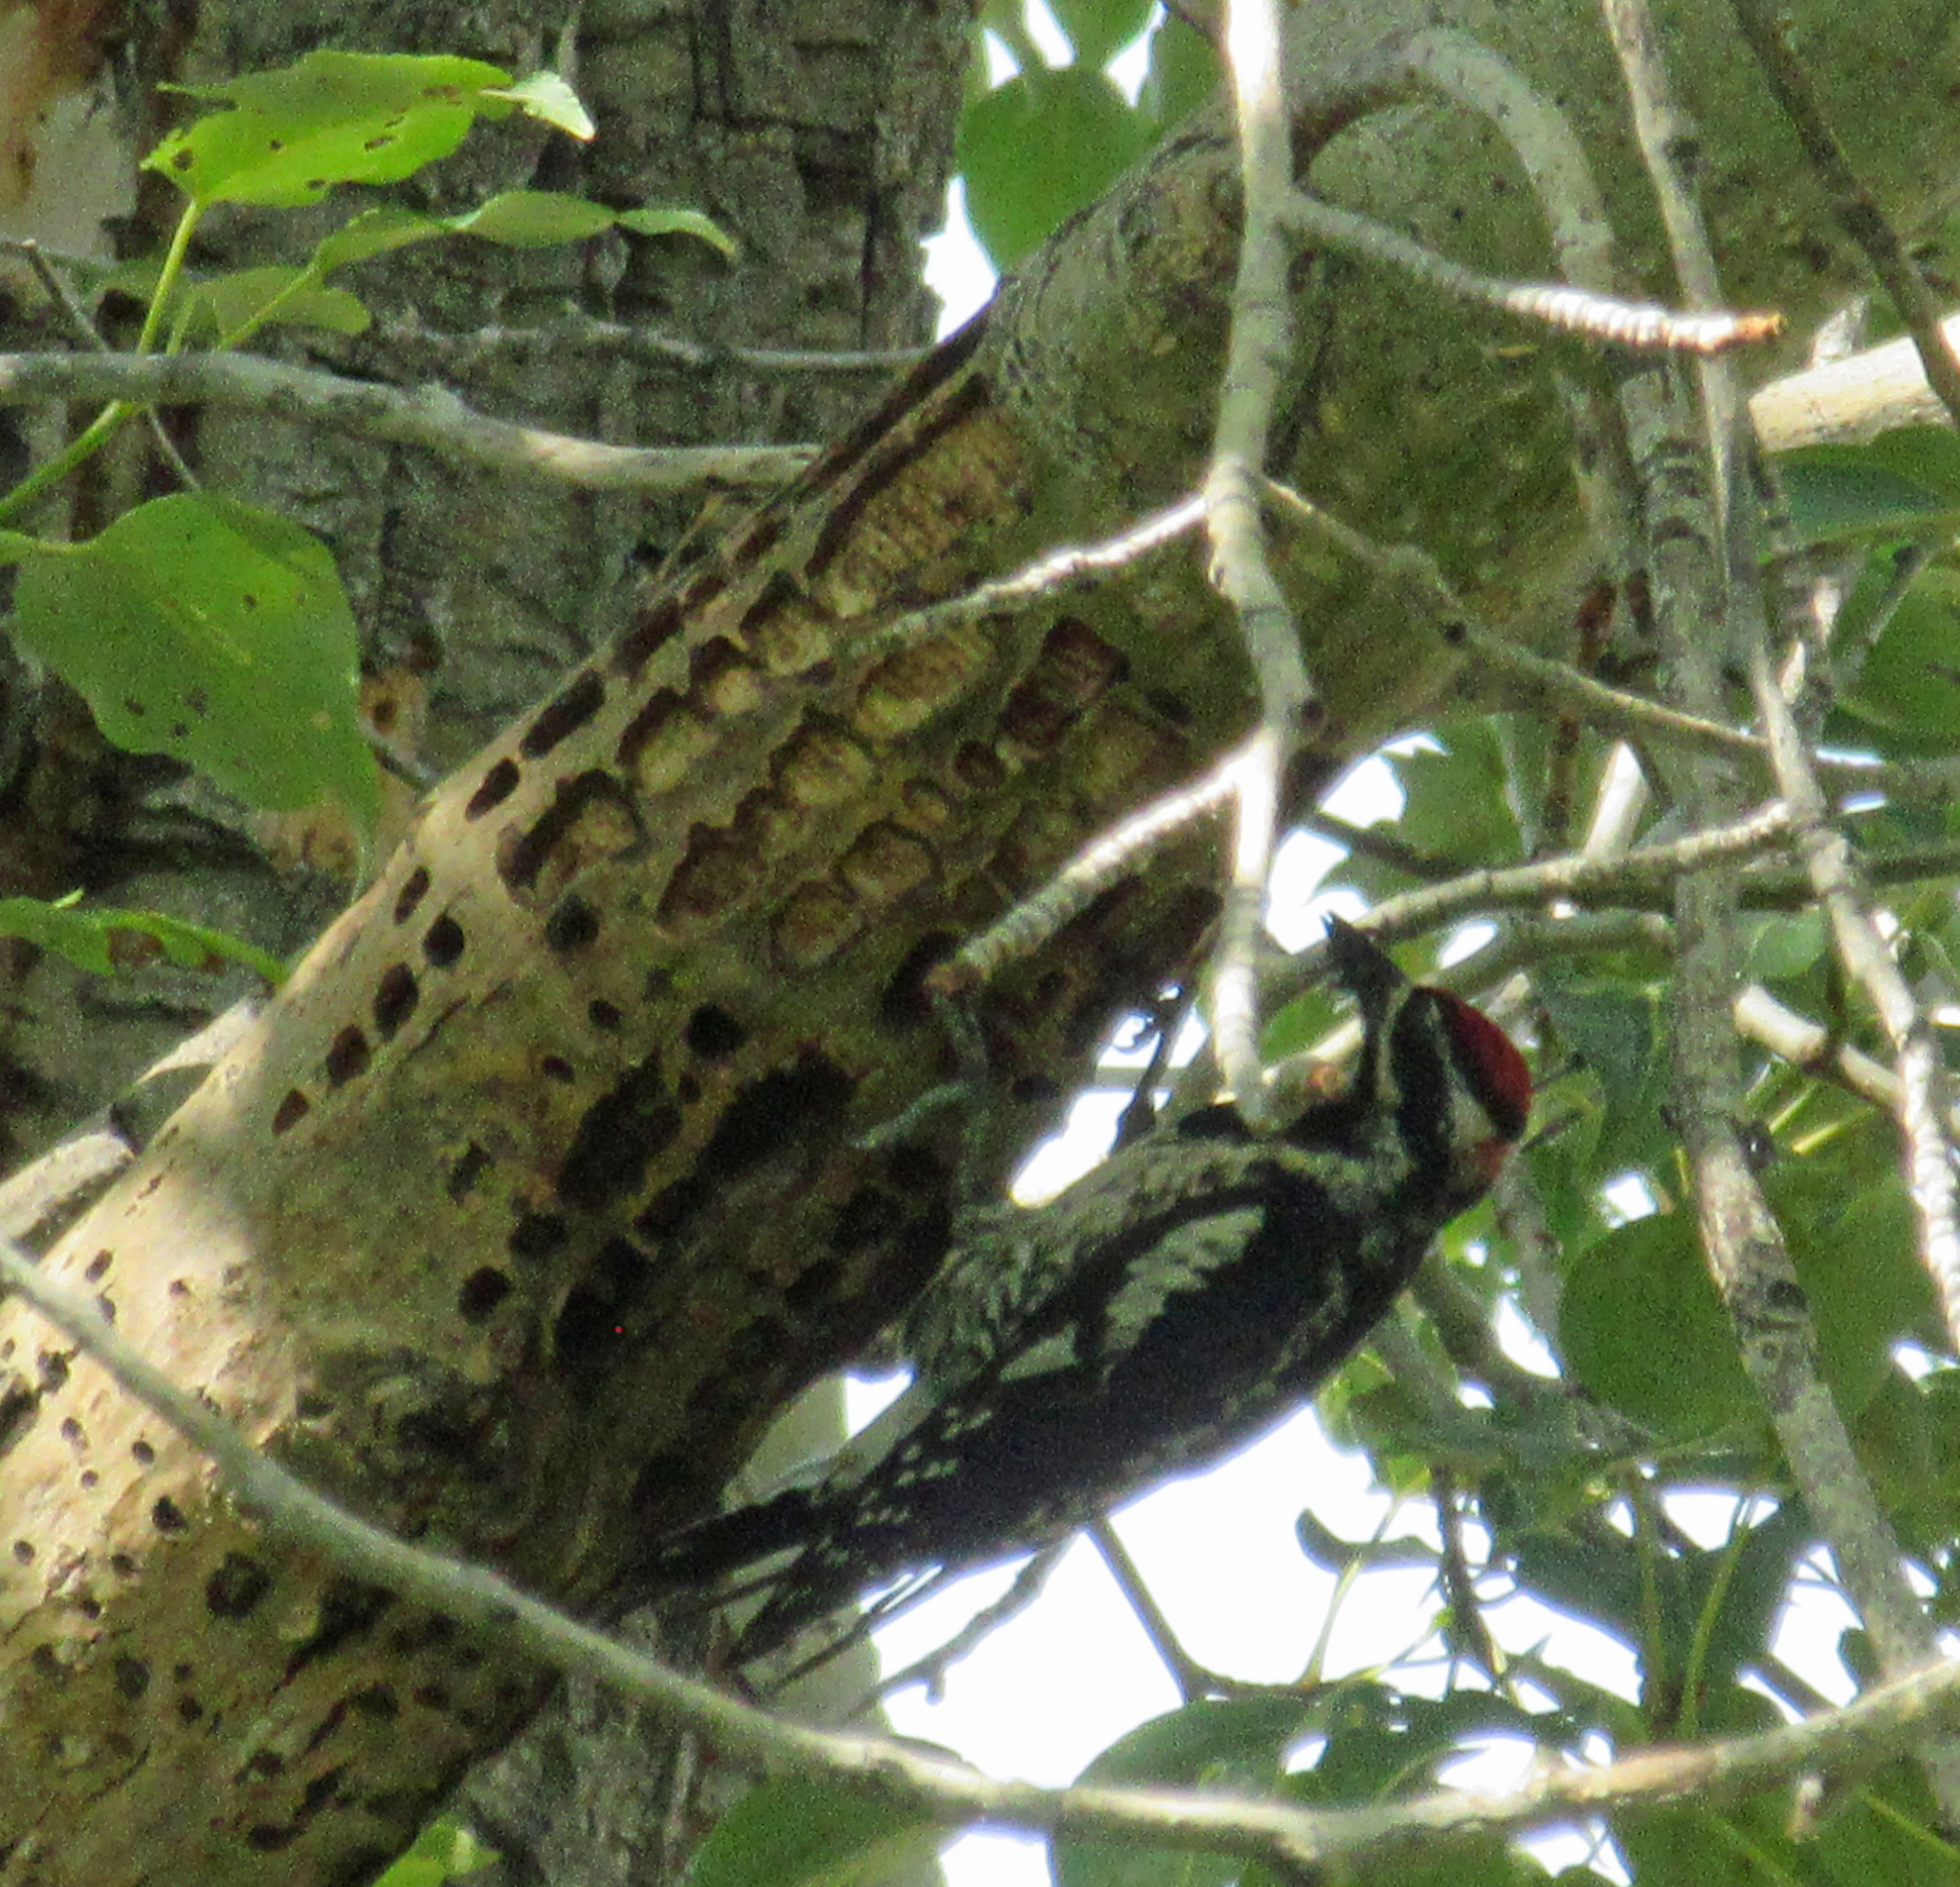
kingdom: Animalia
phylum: Chordata
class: Aves
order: Piciformes
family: Picidae
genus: Sphyrapicus
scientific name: Sphyrapicus nuchalis
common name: Red-naped sapsucker
